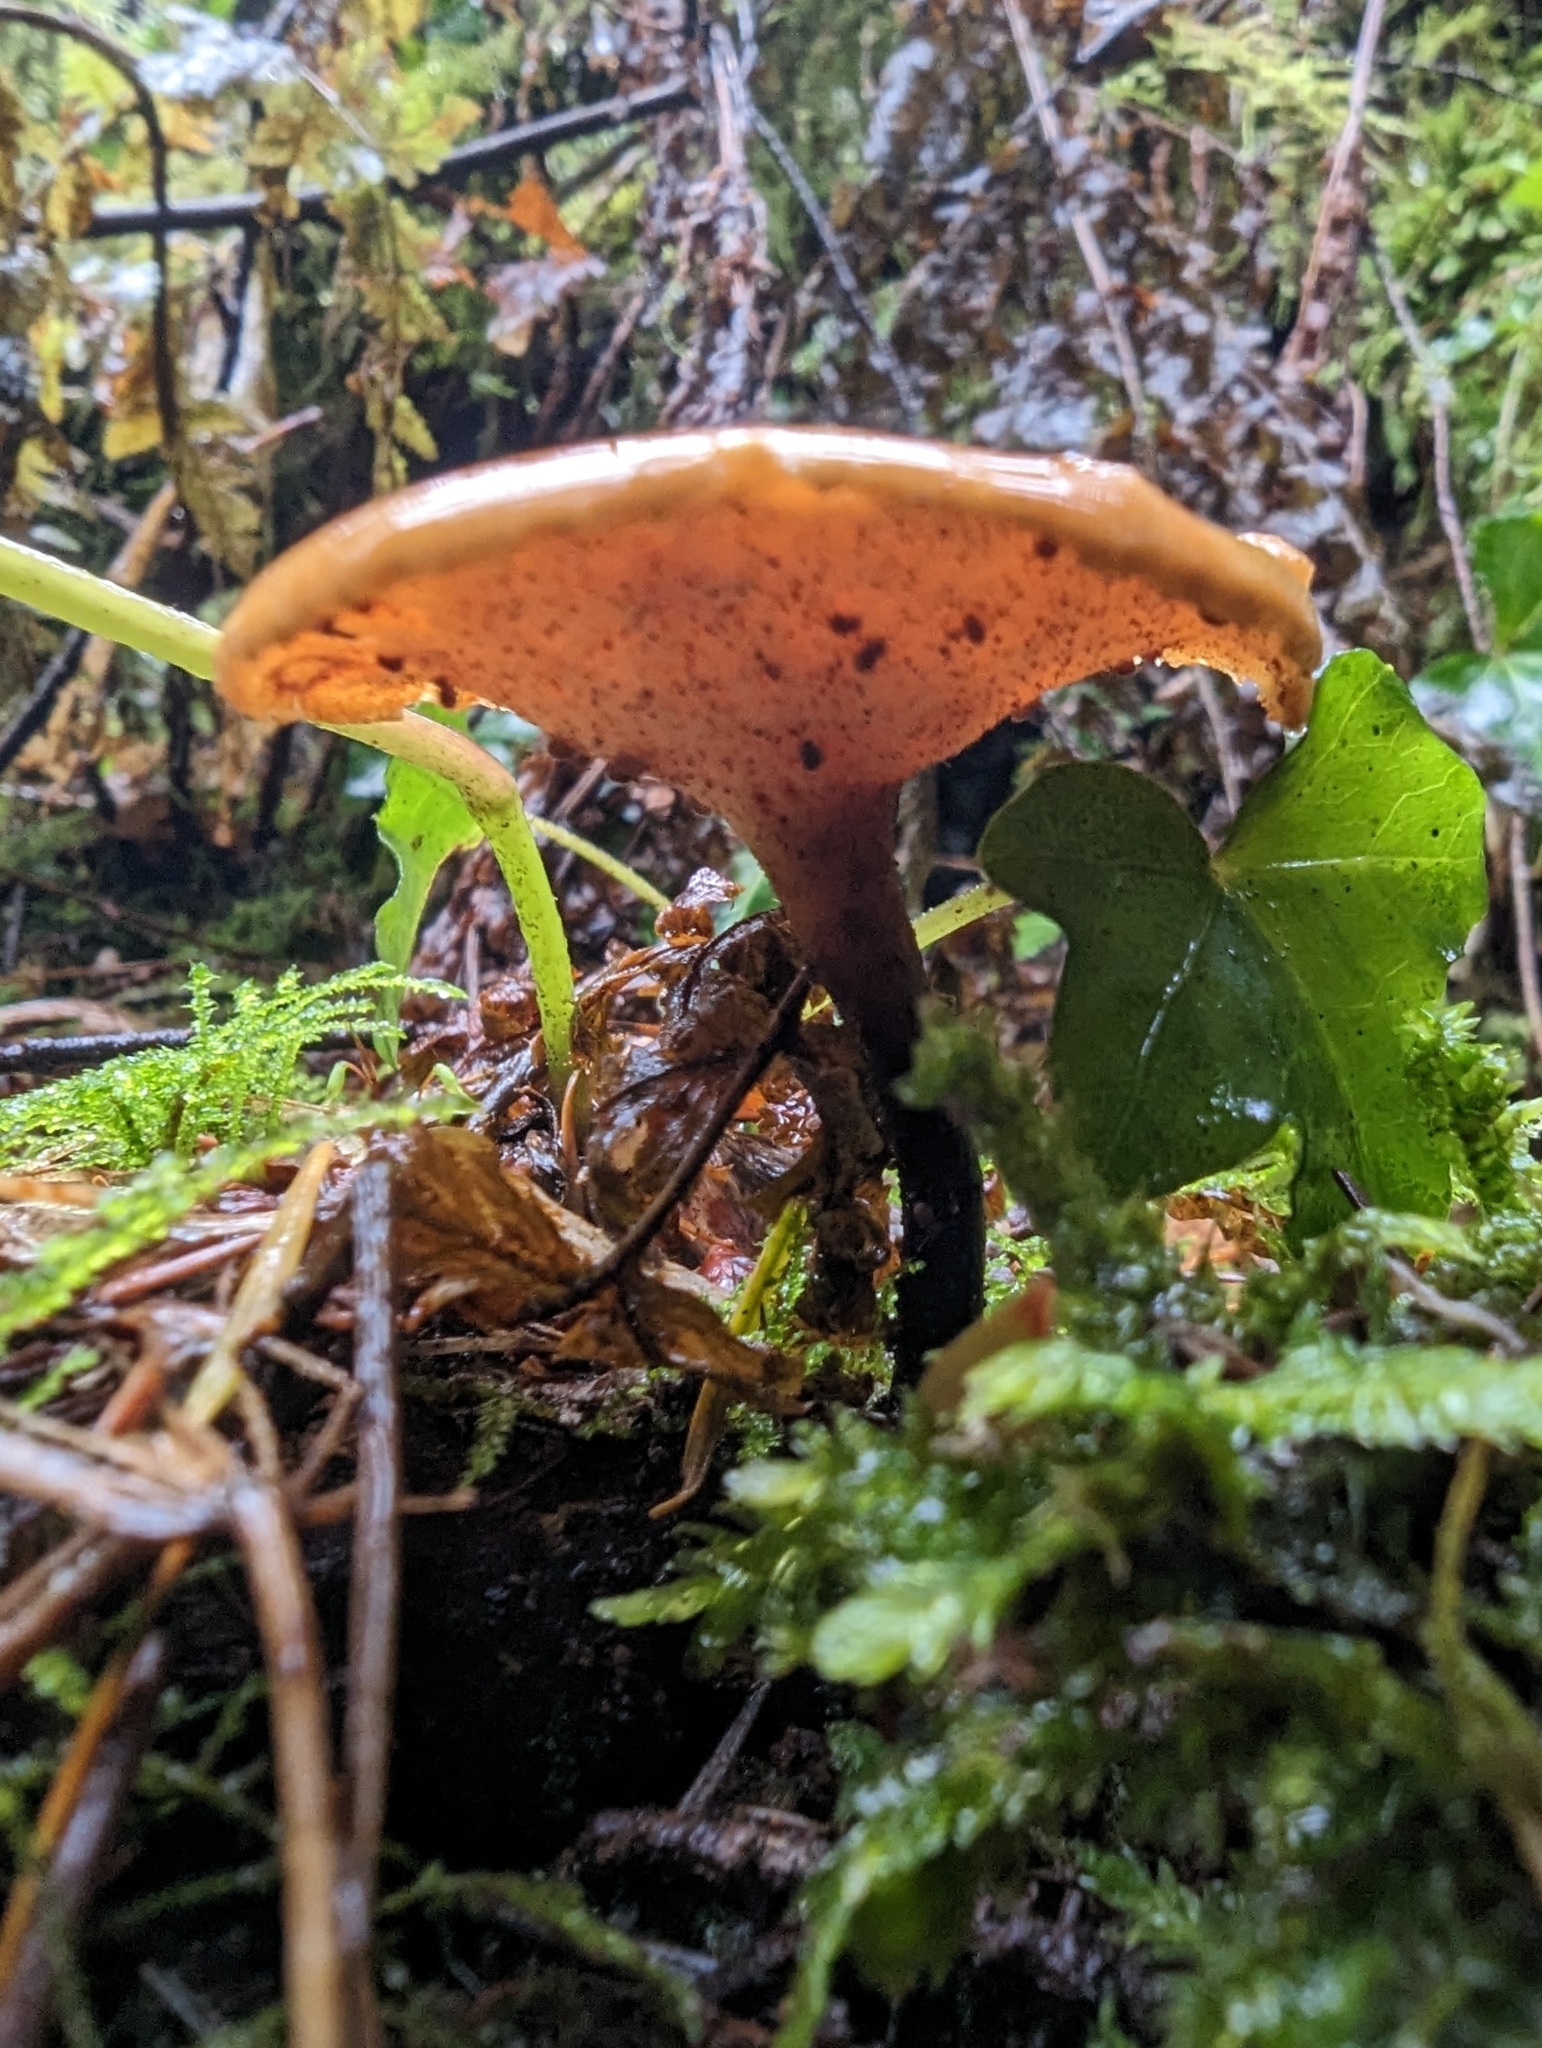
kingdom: Fungi
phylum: Basidiomycota
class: Agaricomycetes
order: Polyporales
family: Polyporaceae
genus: Picipes
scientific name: Picipes badius
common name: Bay polypore
